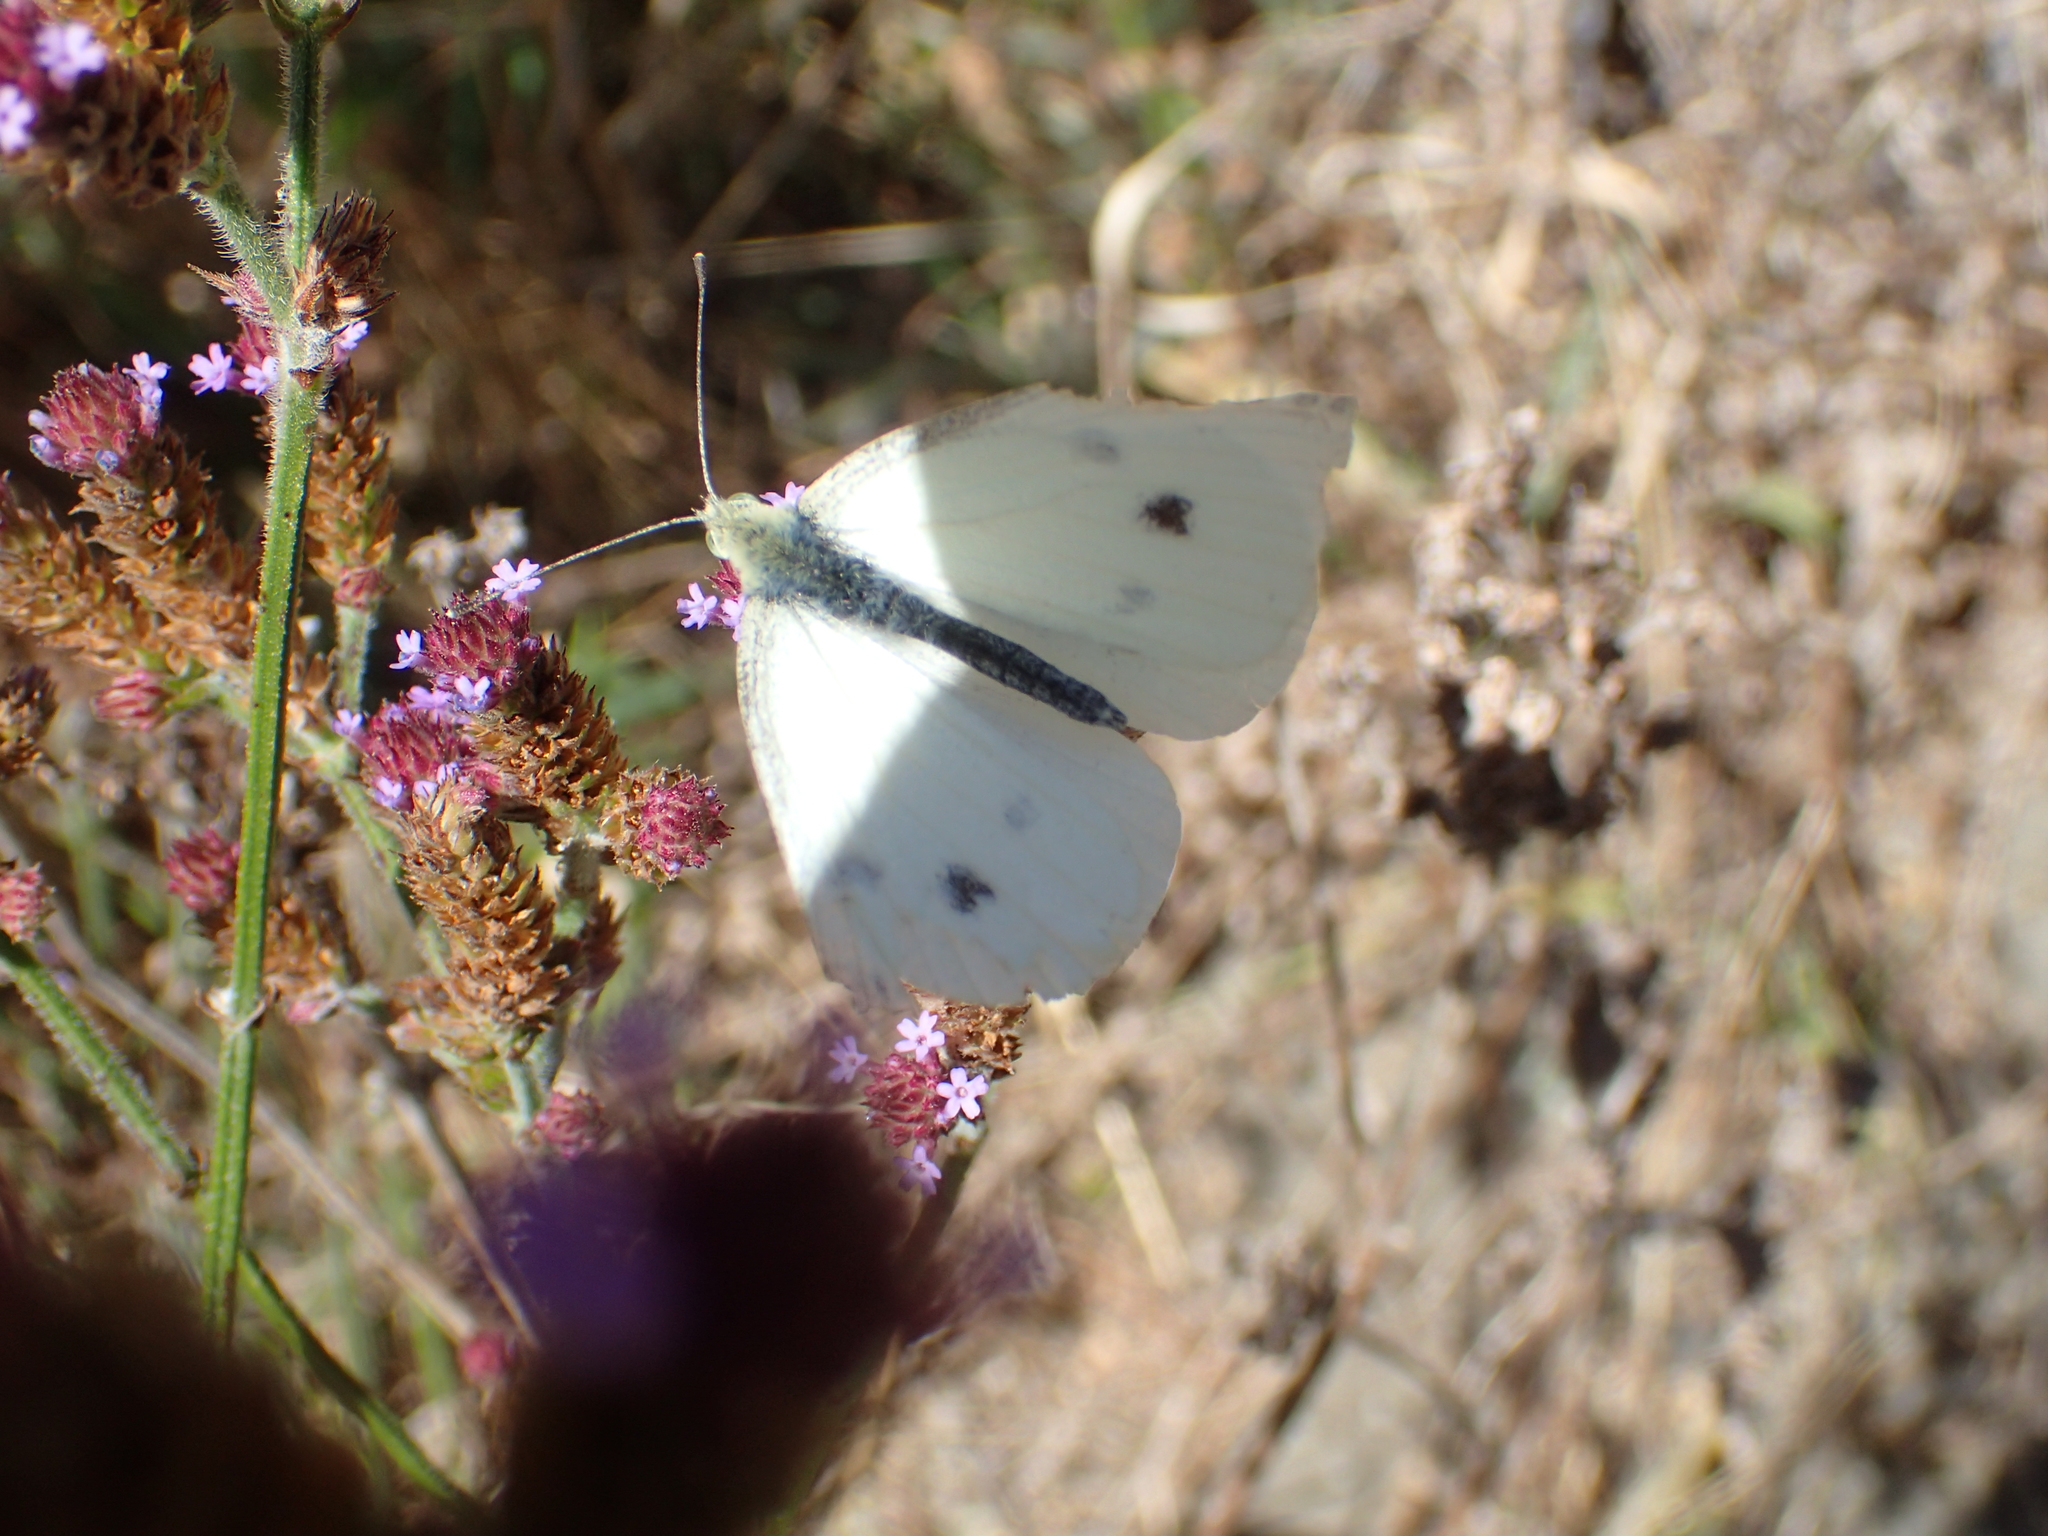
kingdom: Animalia
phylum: Arthropoda
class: Insecta
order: Lepidoptera
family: Pieridae
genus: Pieris
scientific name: Pieris rapae
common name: Small white
